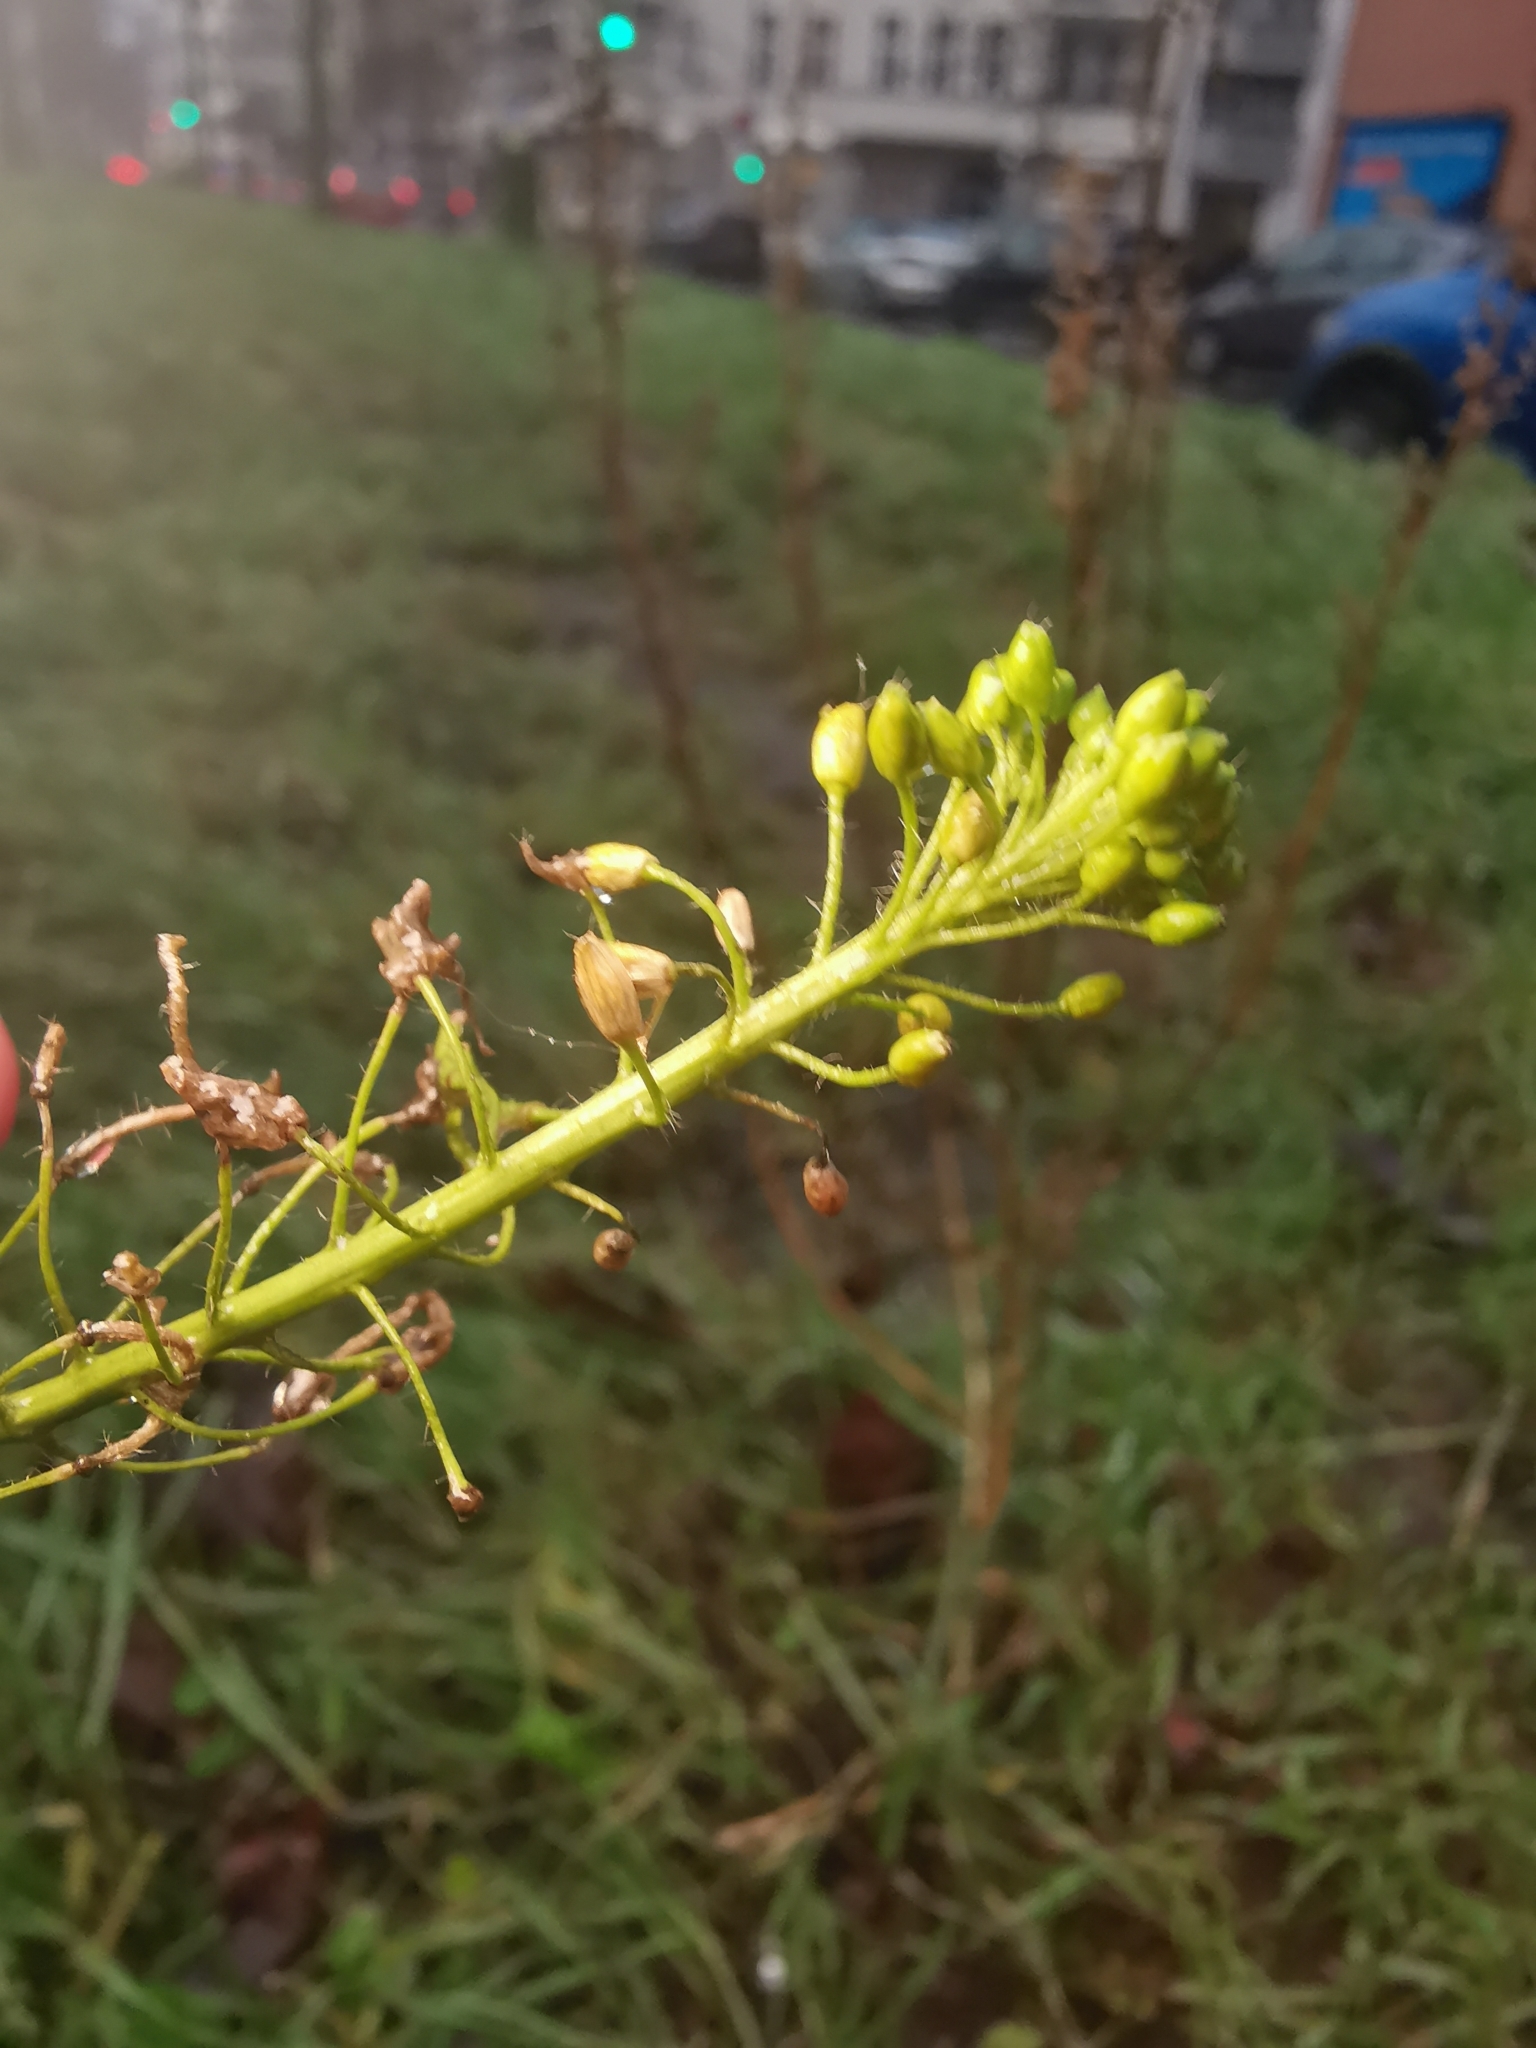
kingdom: Plantae
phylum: Tracheophyta
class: Magnoliopsida
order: Brassicales
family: Brassicaceae
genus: Sisymbrium
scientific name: Sisymbrium loeselii
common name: False london-rocket
